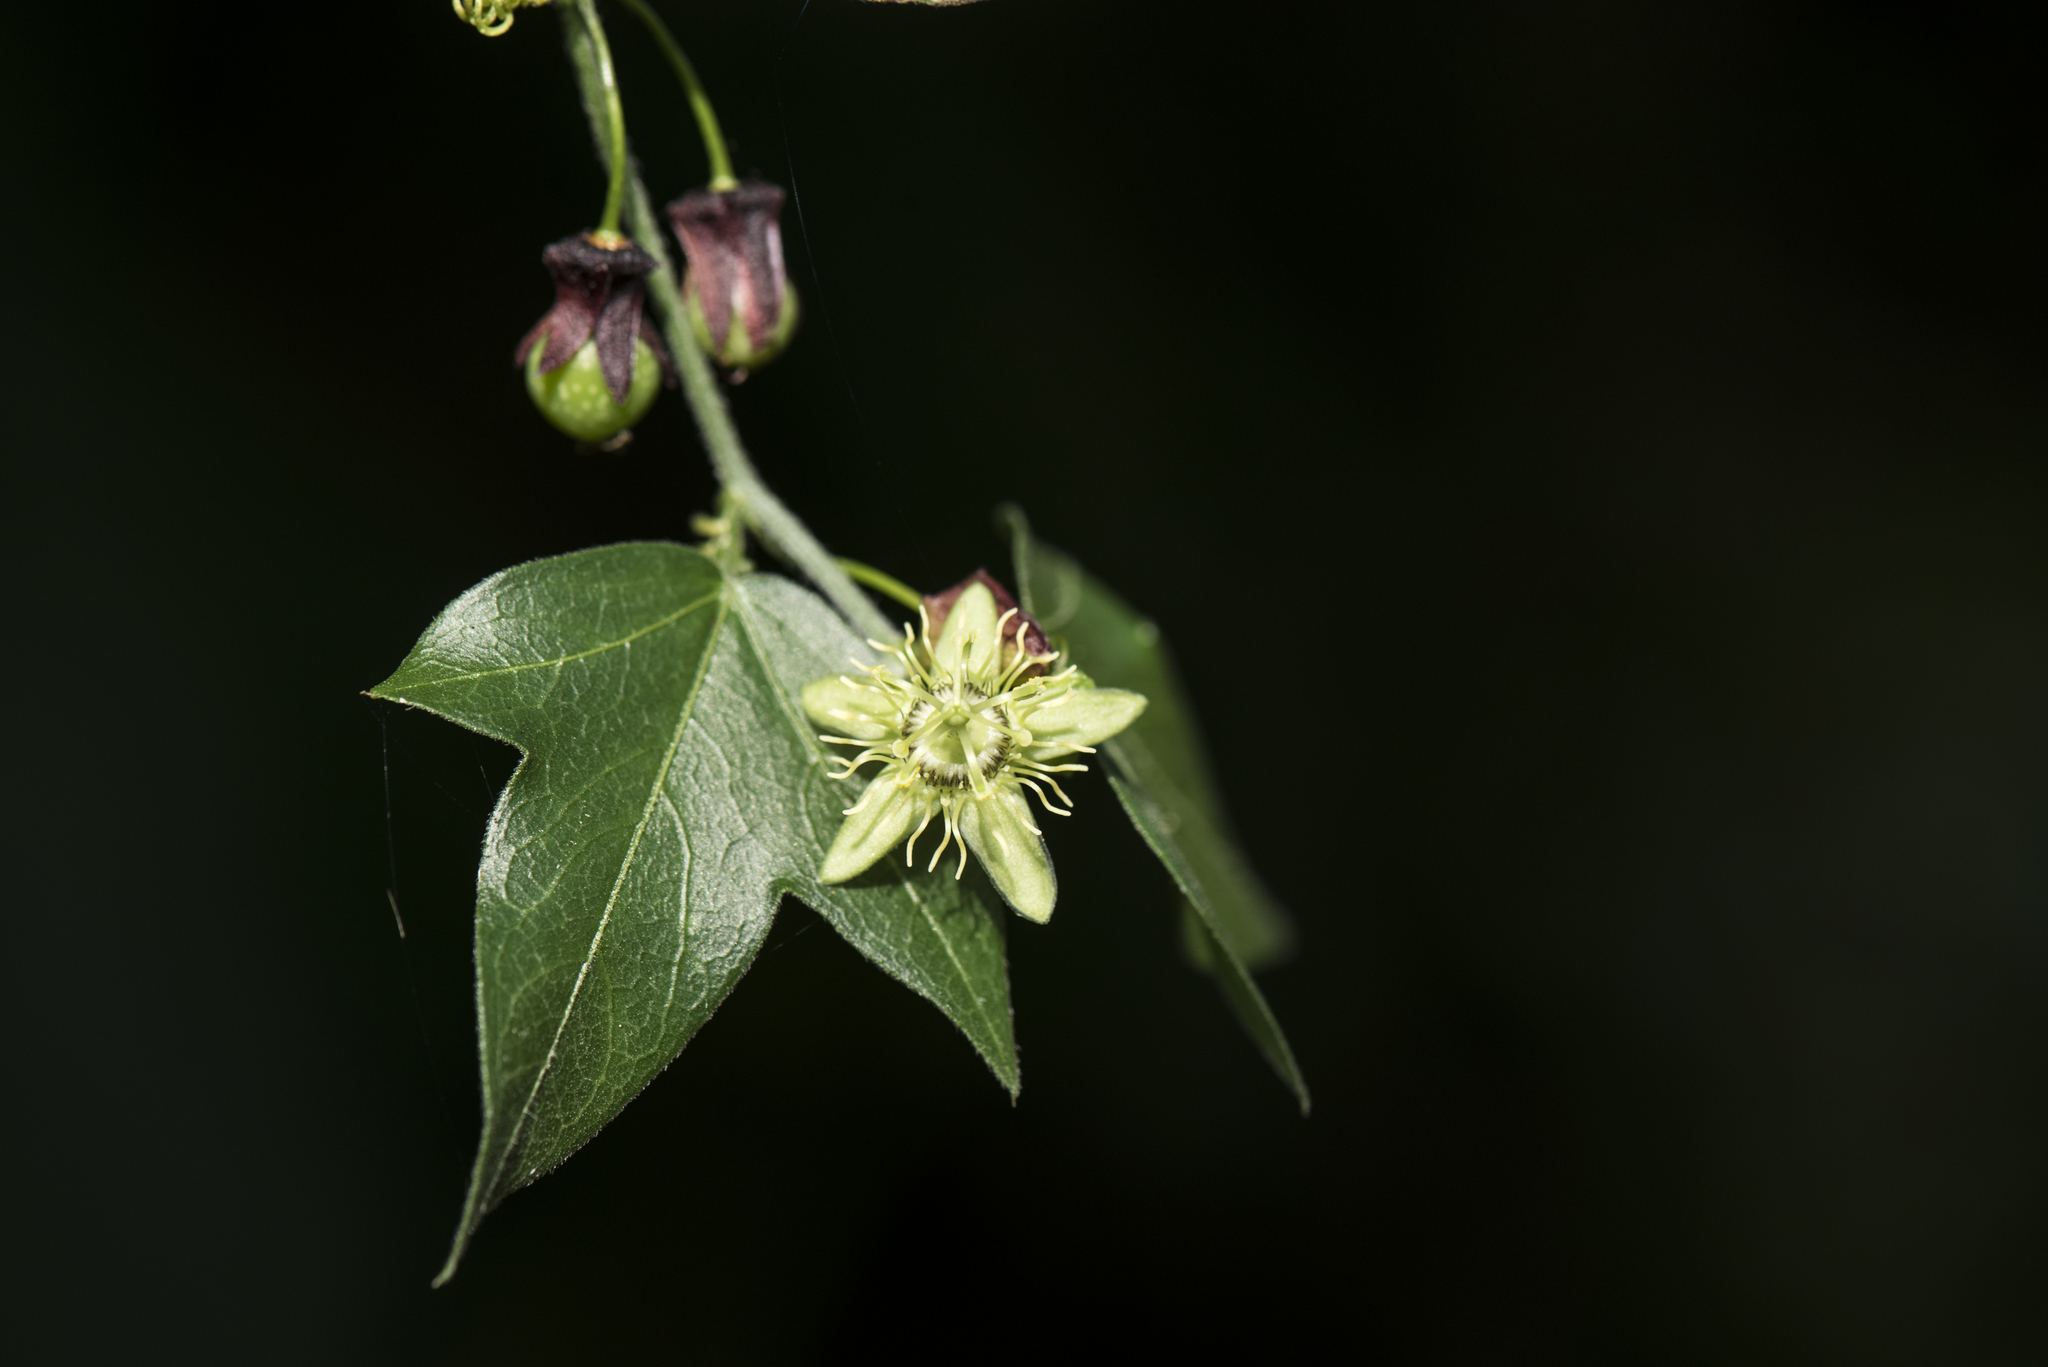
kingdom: Plantae
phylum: Tracheophyta
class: Magnoliopsida
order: Malpighiales
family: Passifloraceae
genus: Passiflora
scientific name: Passiflora suberosa
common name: Wild passionfruit
